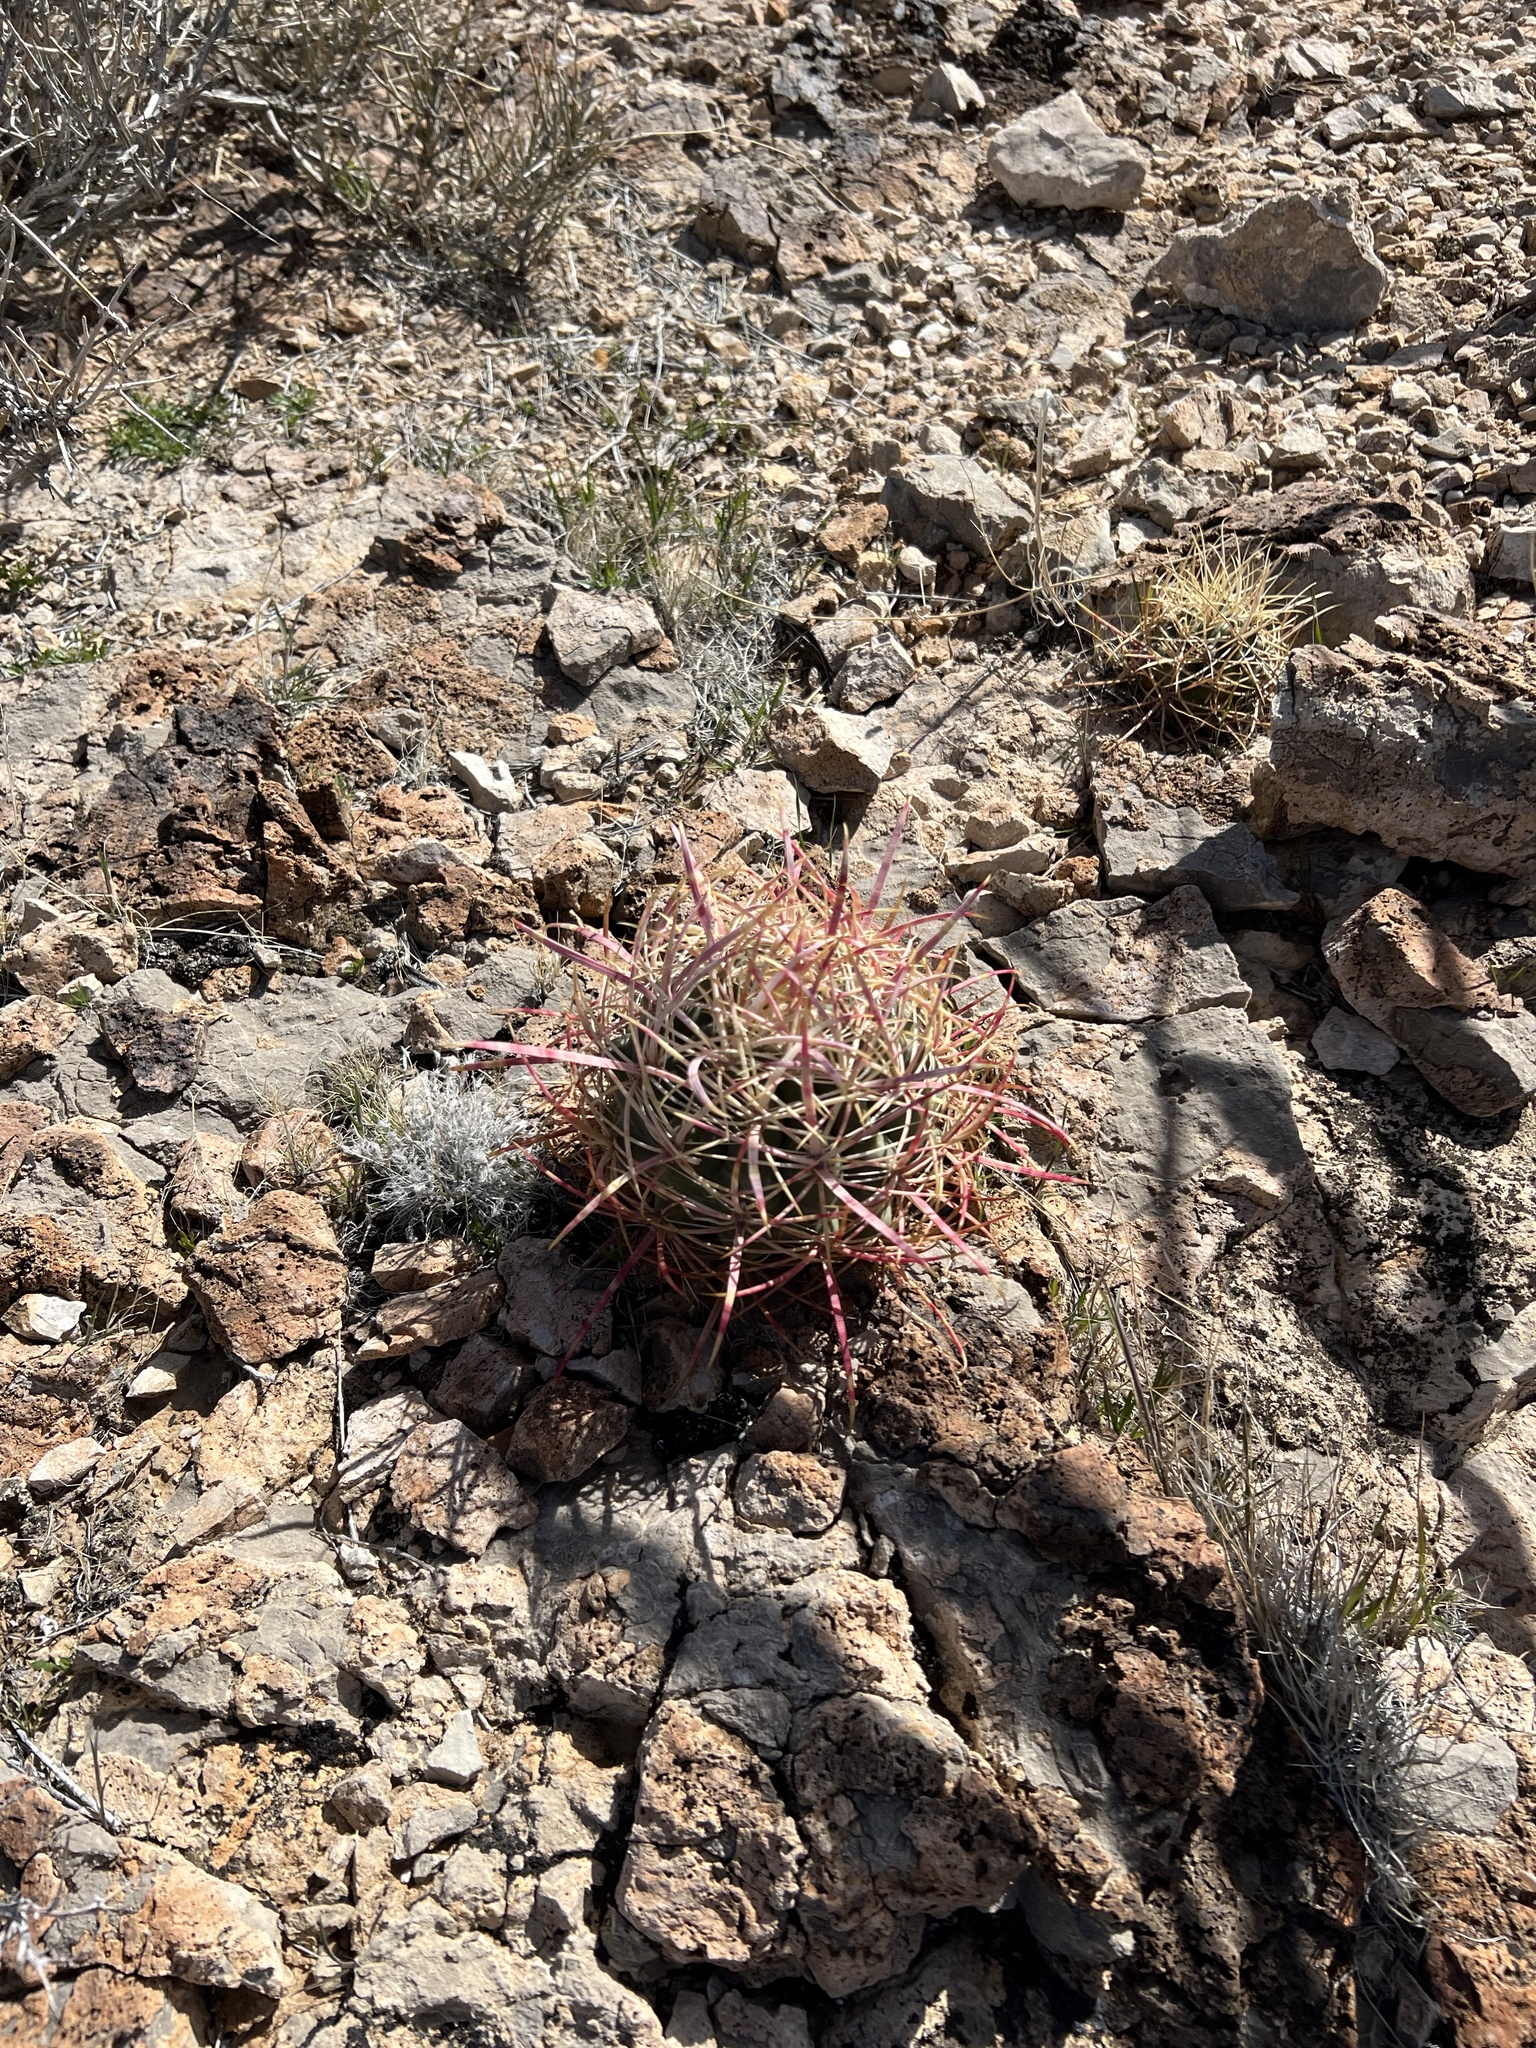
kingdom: Plantae
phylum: Tracheophyta
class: Magnoliopsida
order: Caryophyllales
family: Cactaceae
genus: Ferocactus
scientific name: Ferocactus cylindraceus
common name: California barrel cactus
